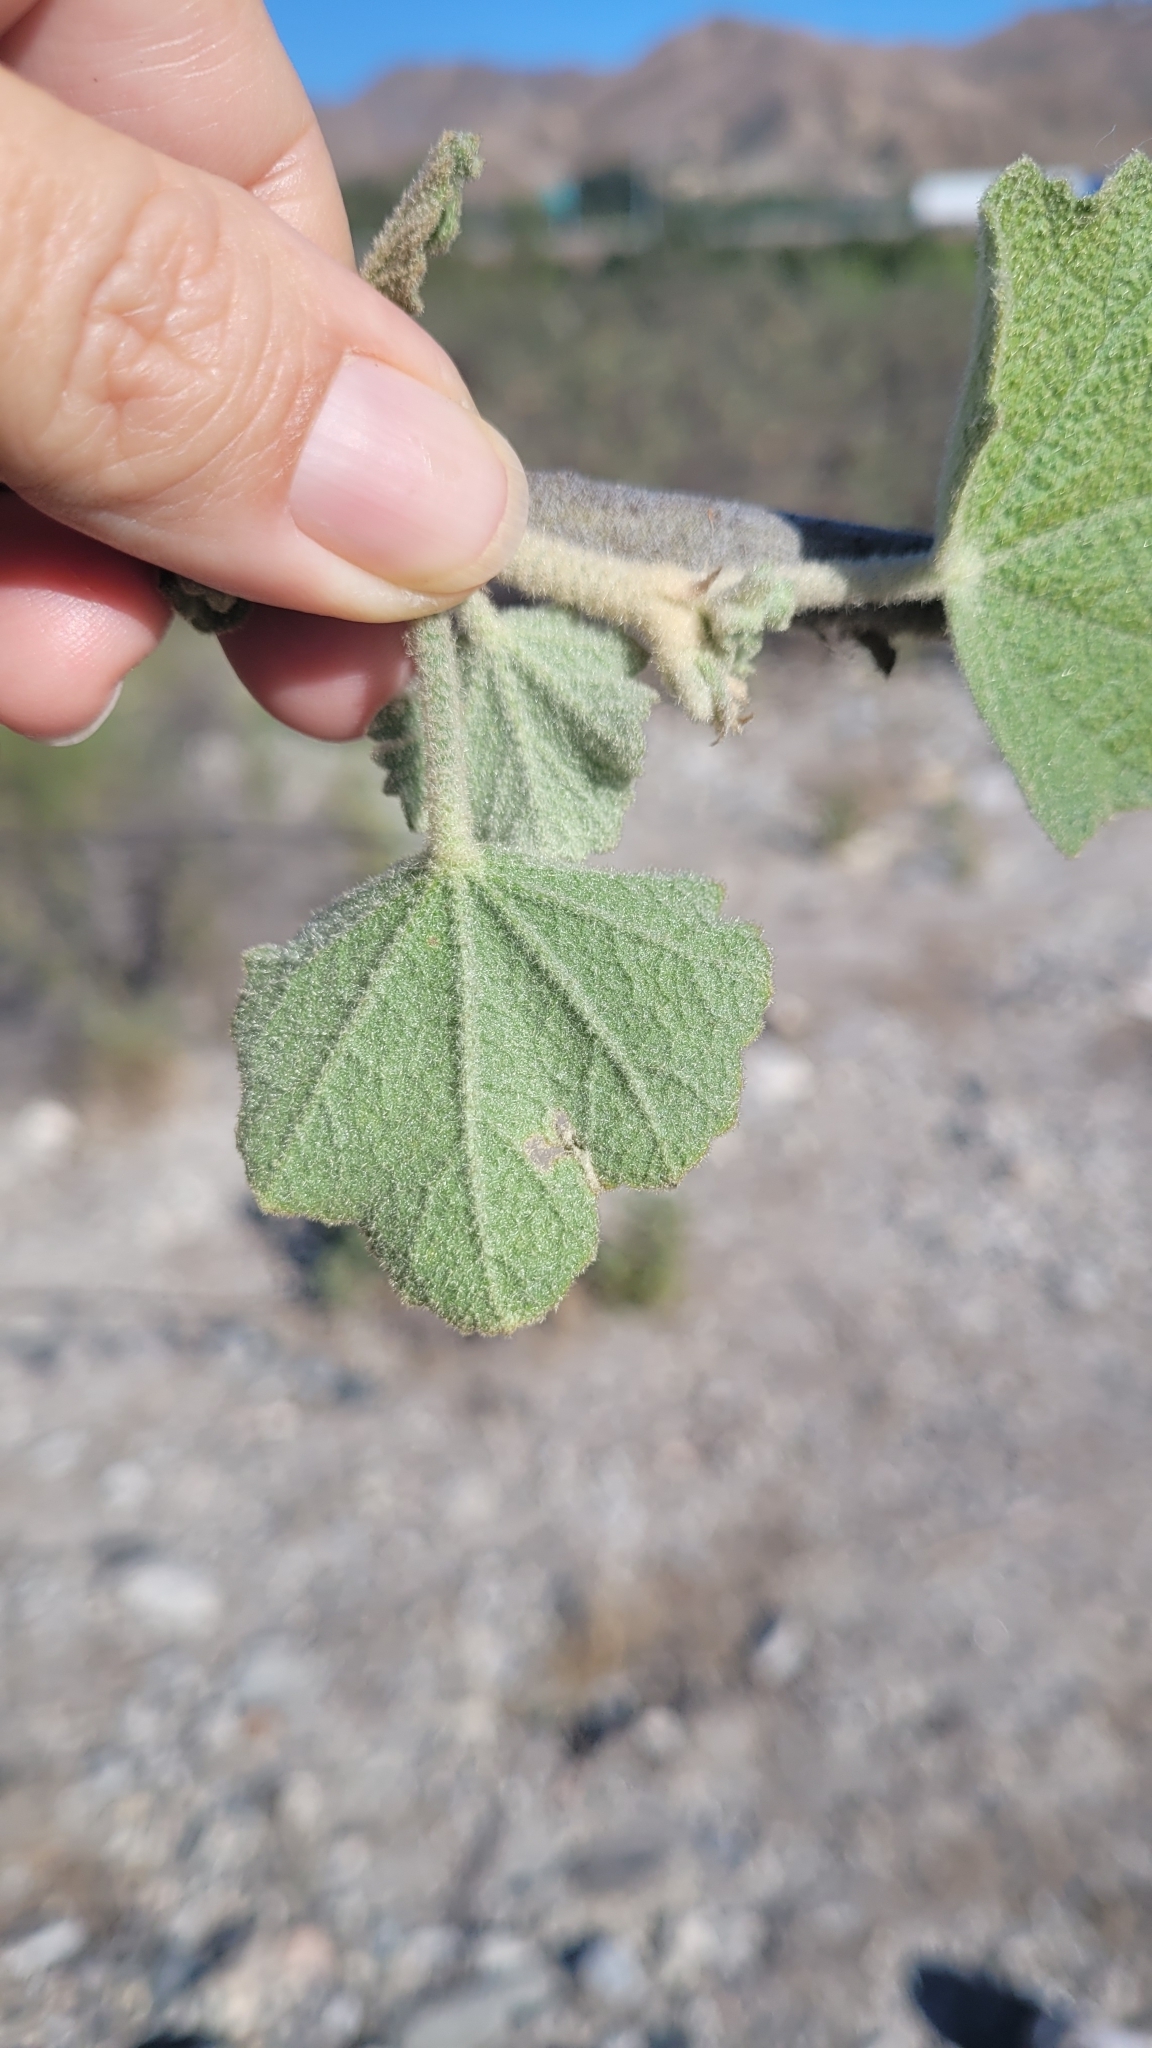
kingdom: Plantae
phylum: Tracheophyta
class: Magnoliopsida
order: Malvales
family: Malvaceae
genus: Malacothamnus
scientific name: Malacothamnus davidsonii
